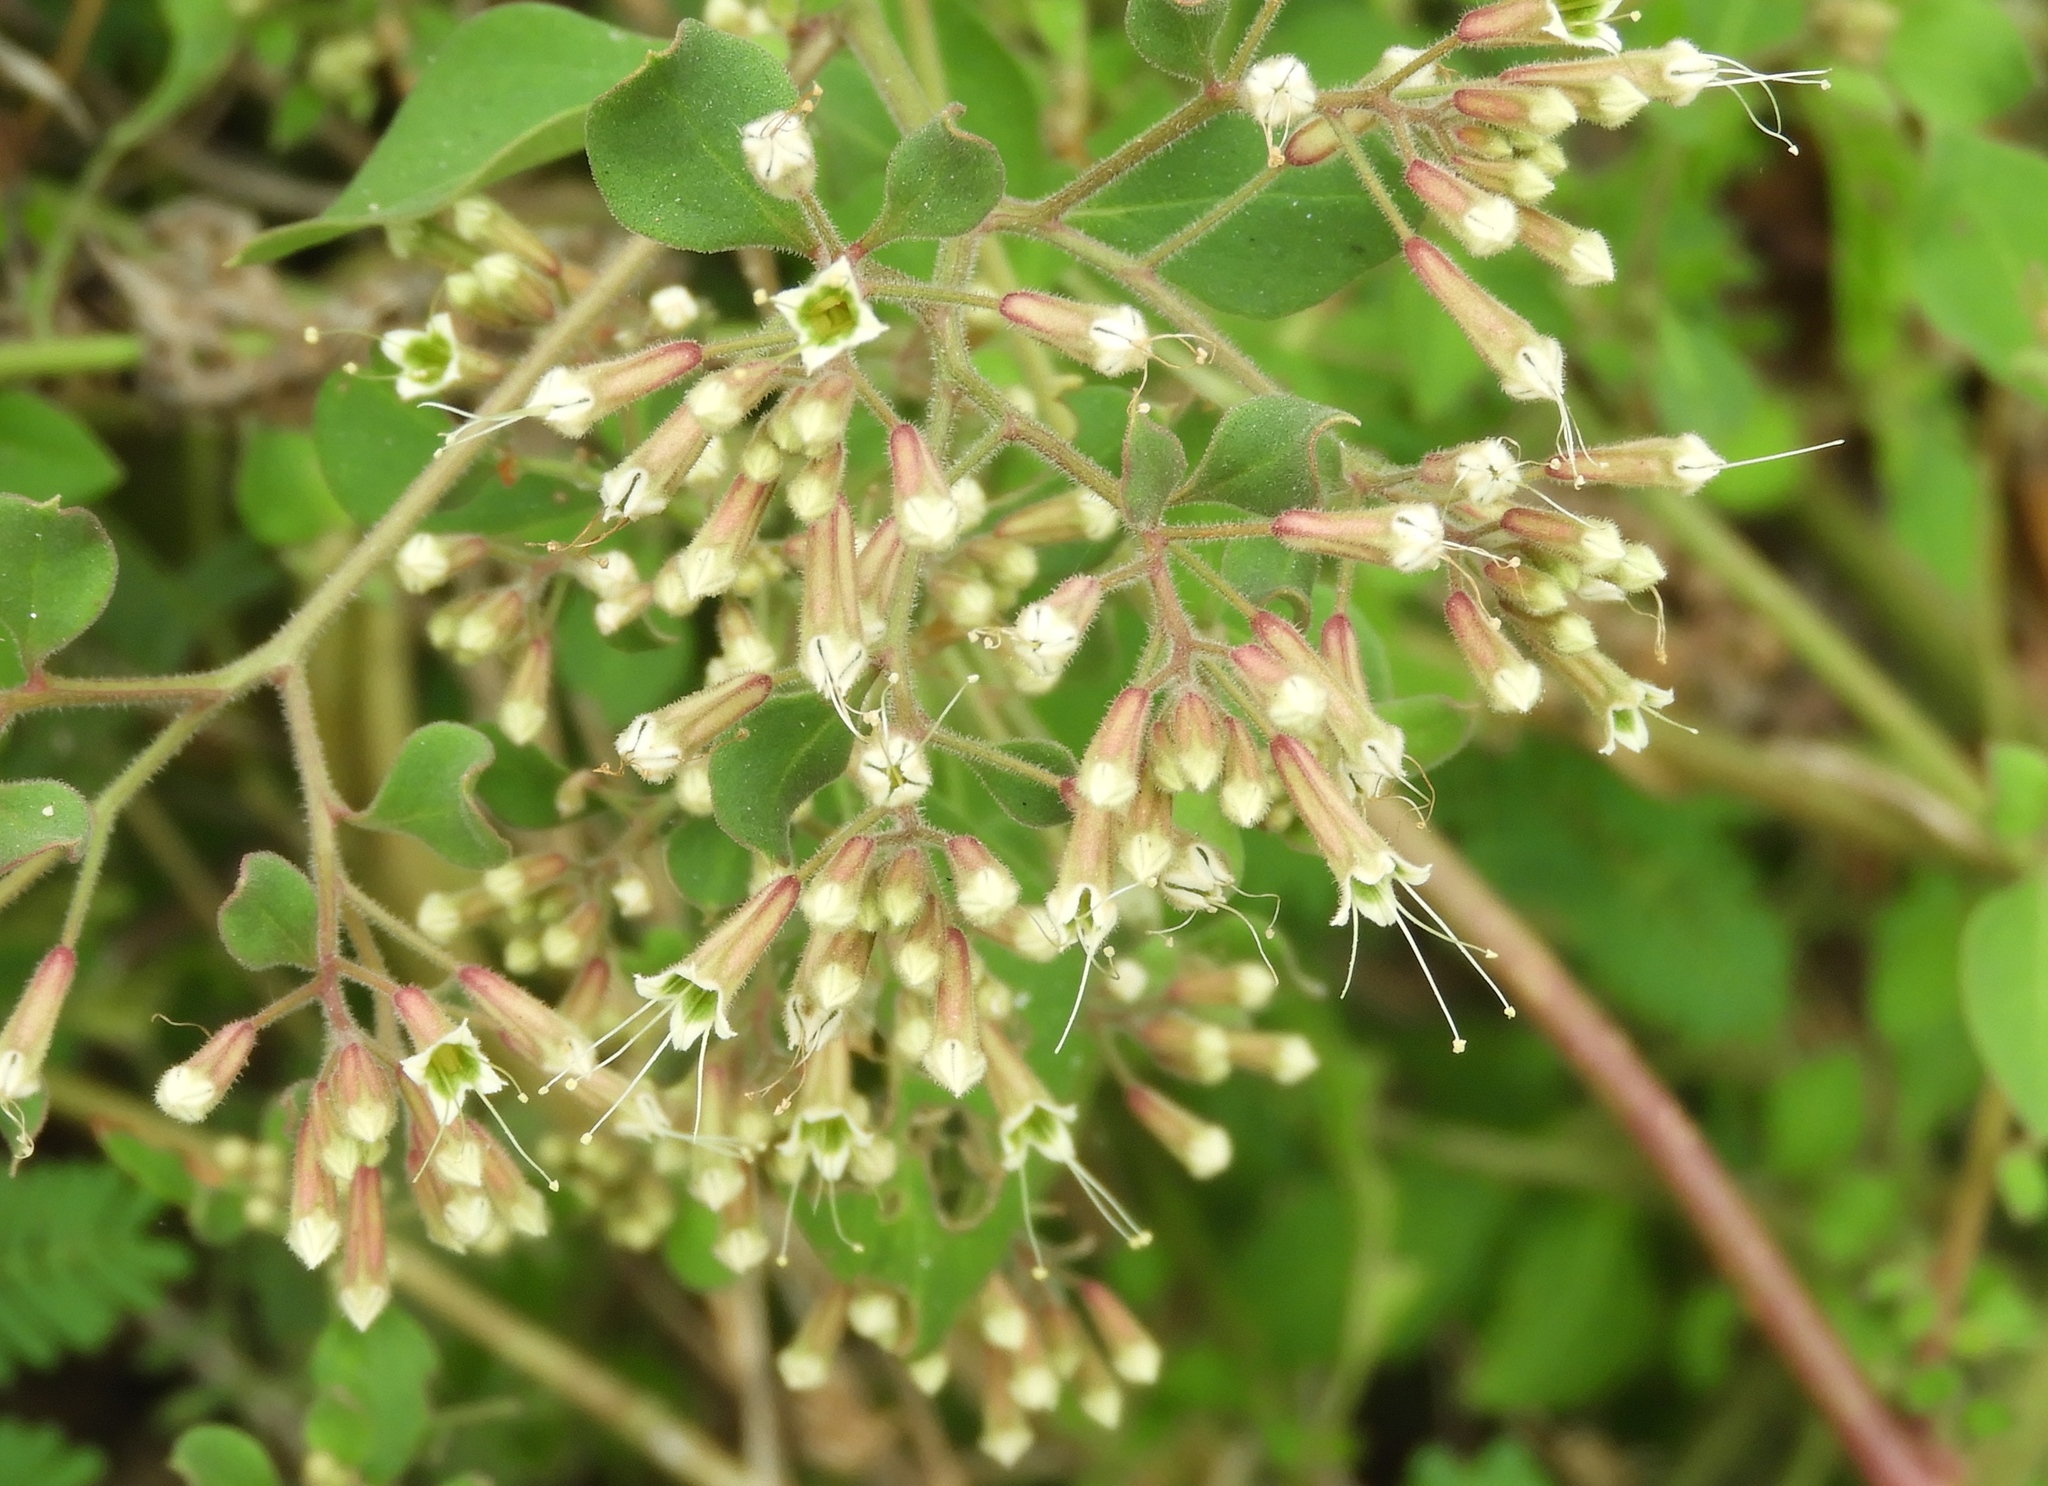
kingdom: Plantae
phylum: Tracheophyta
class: Magnoliopsida
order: Caryophyllales
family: Nyctaginaceae
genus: Salpianthus
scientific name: Salpianthus arenarius
